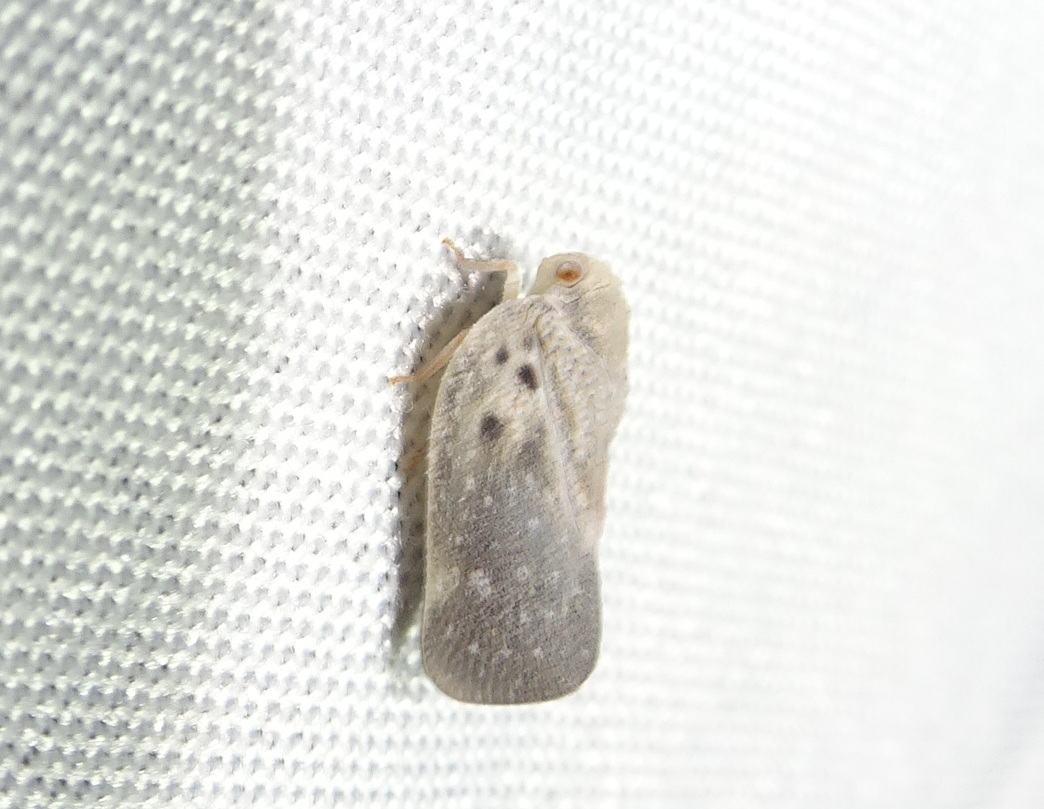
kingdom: Animalia
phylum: Arthropoda
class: Insecta
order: Hemiptera
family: Flatidae
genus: Metcalfa
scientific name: Metcalfa pruinosa
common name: Citrus flatid planthopper
